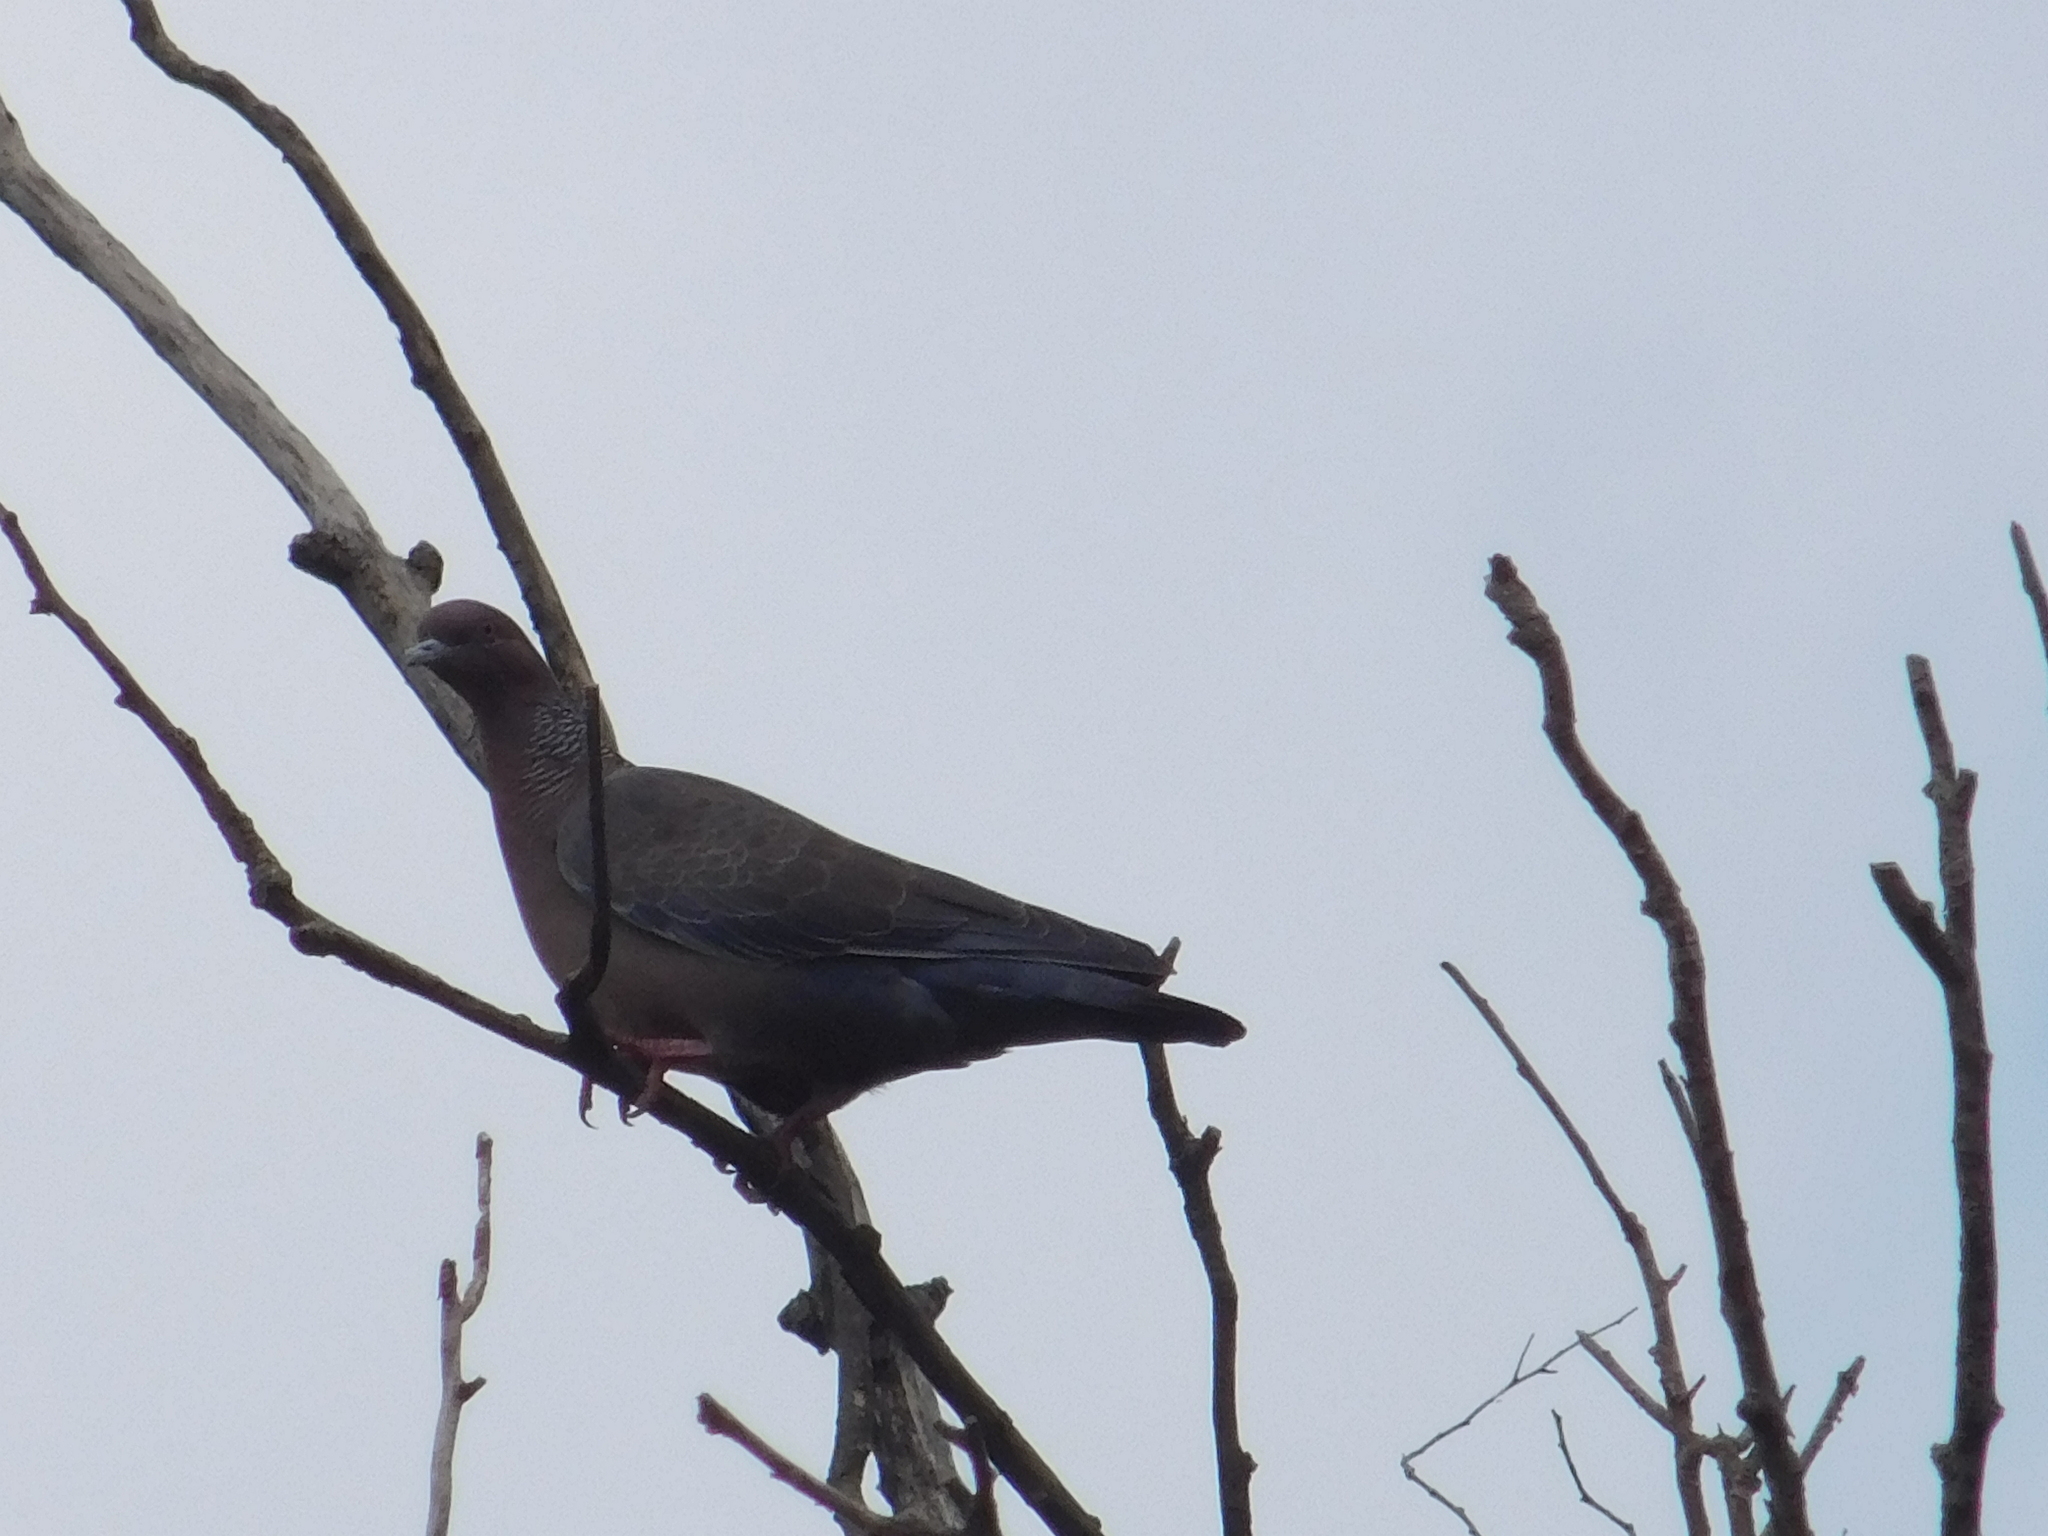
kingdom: Animalia
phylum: Chordata
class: Aves
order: Columbiformes
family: Columbidae
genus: Patagioenas
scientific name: Patagioenas picazuro
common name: Picazuro pigeon
